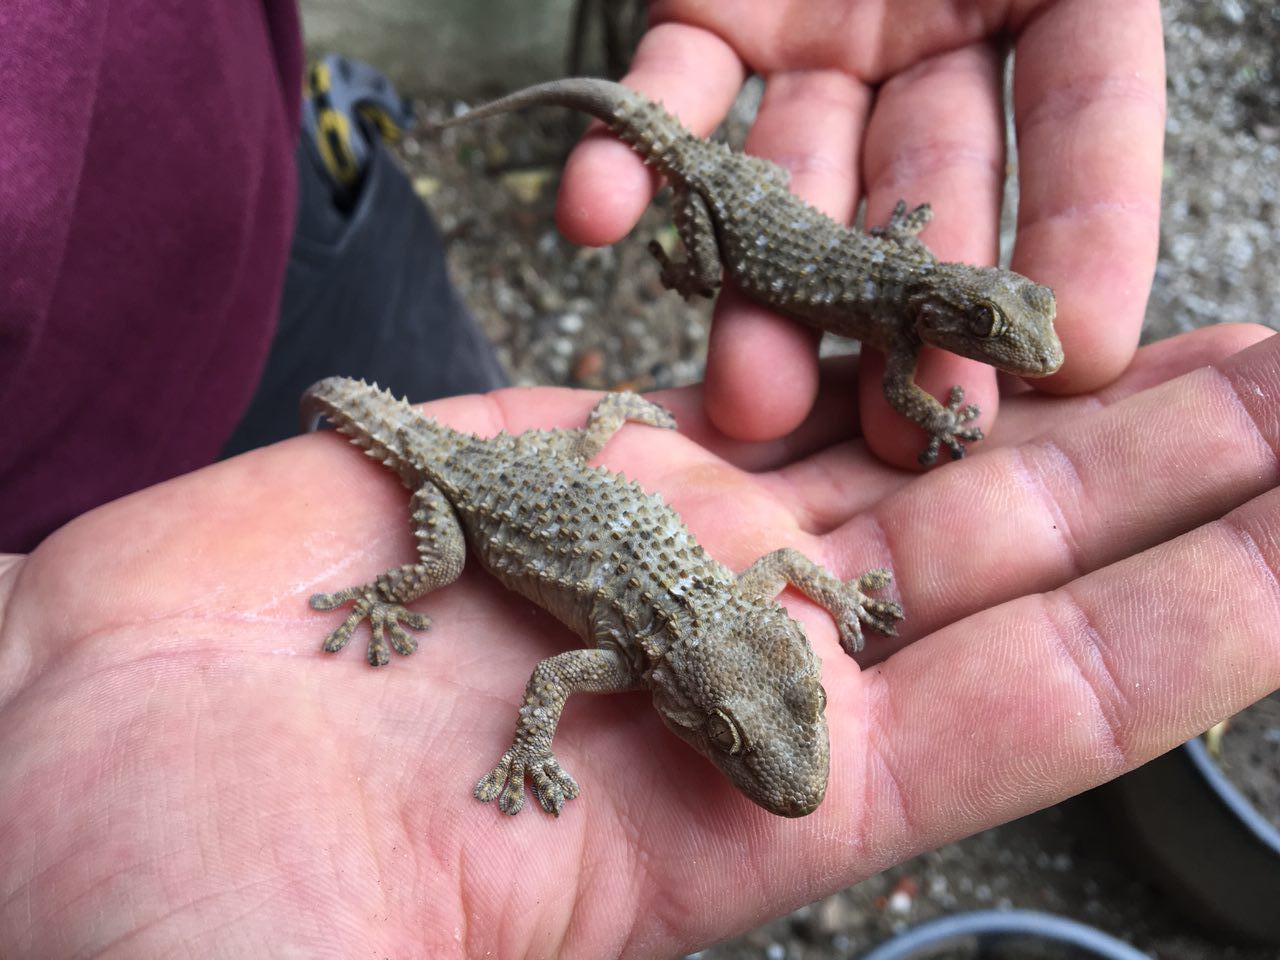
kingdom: Animalia
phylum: Chordata
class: Squamata
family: Phyllodactylidae
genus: Tarentola
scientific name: Tarentola mauritanica
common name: Moorish gecko
